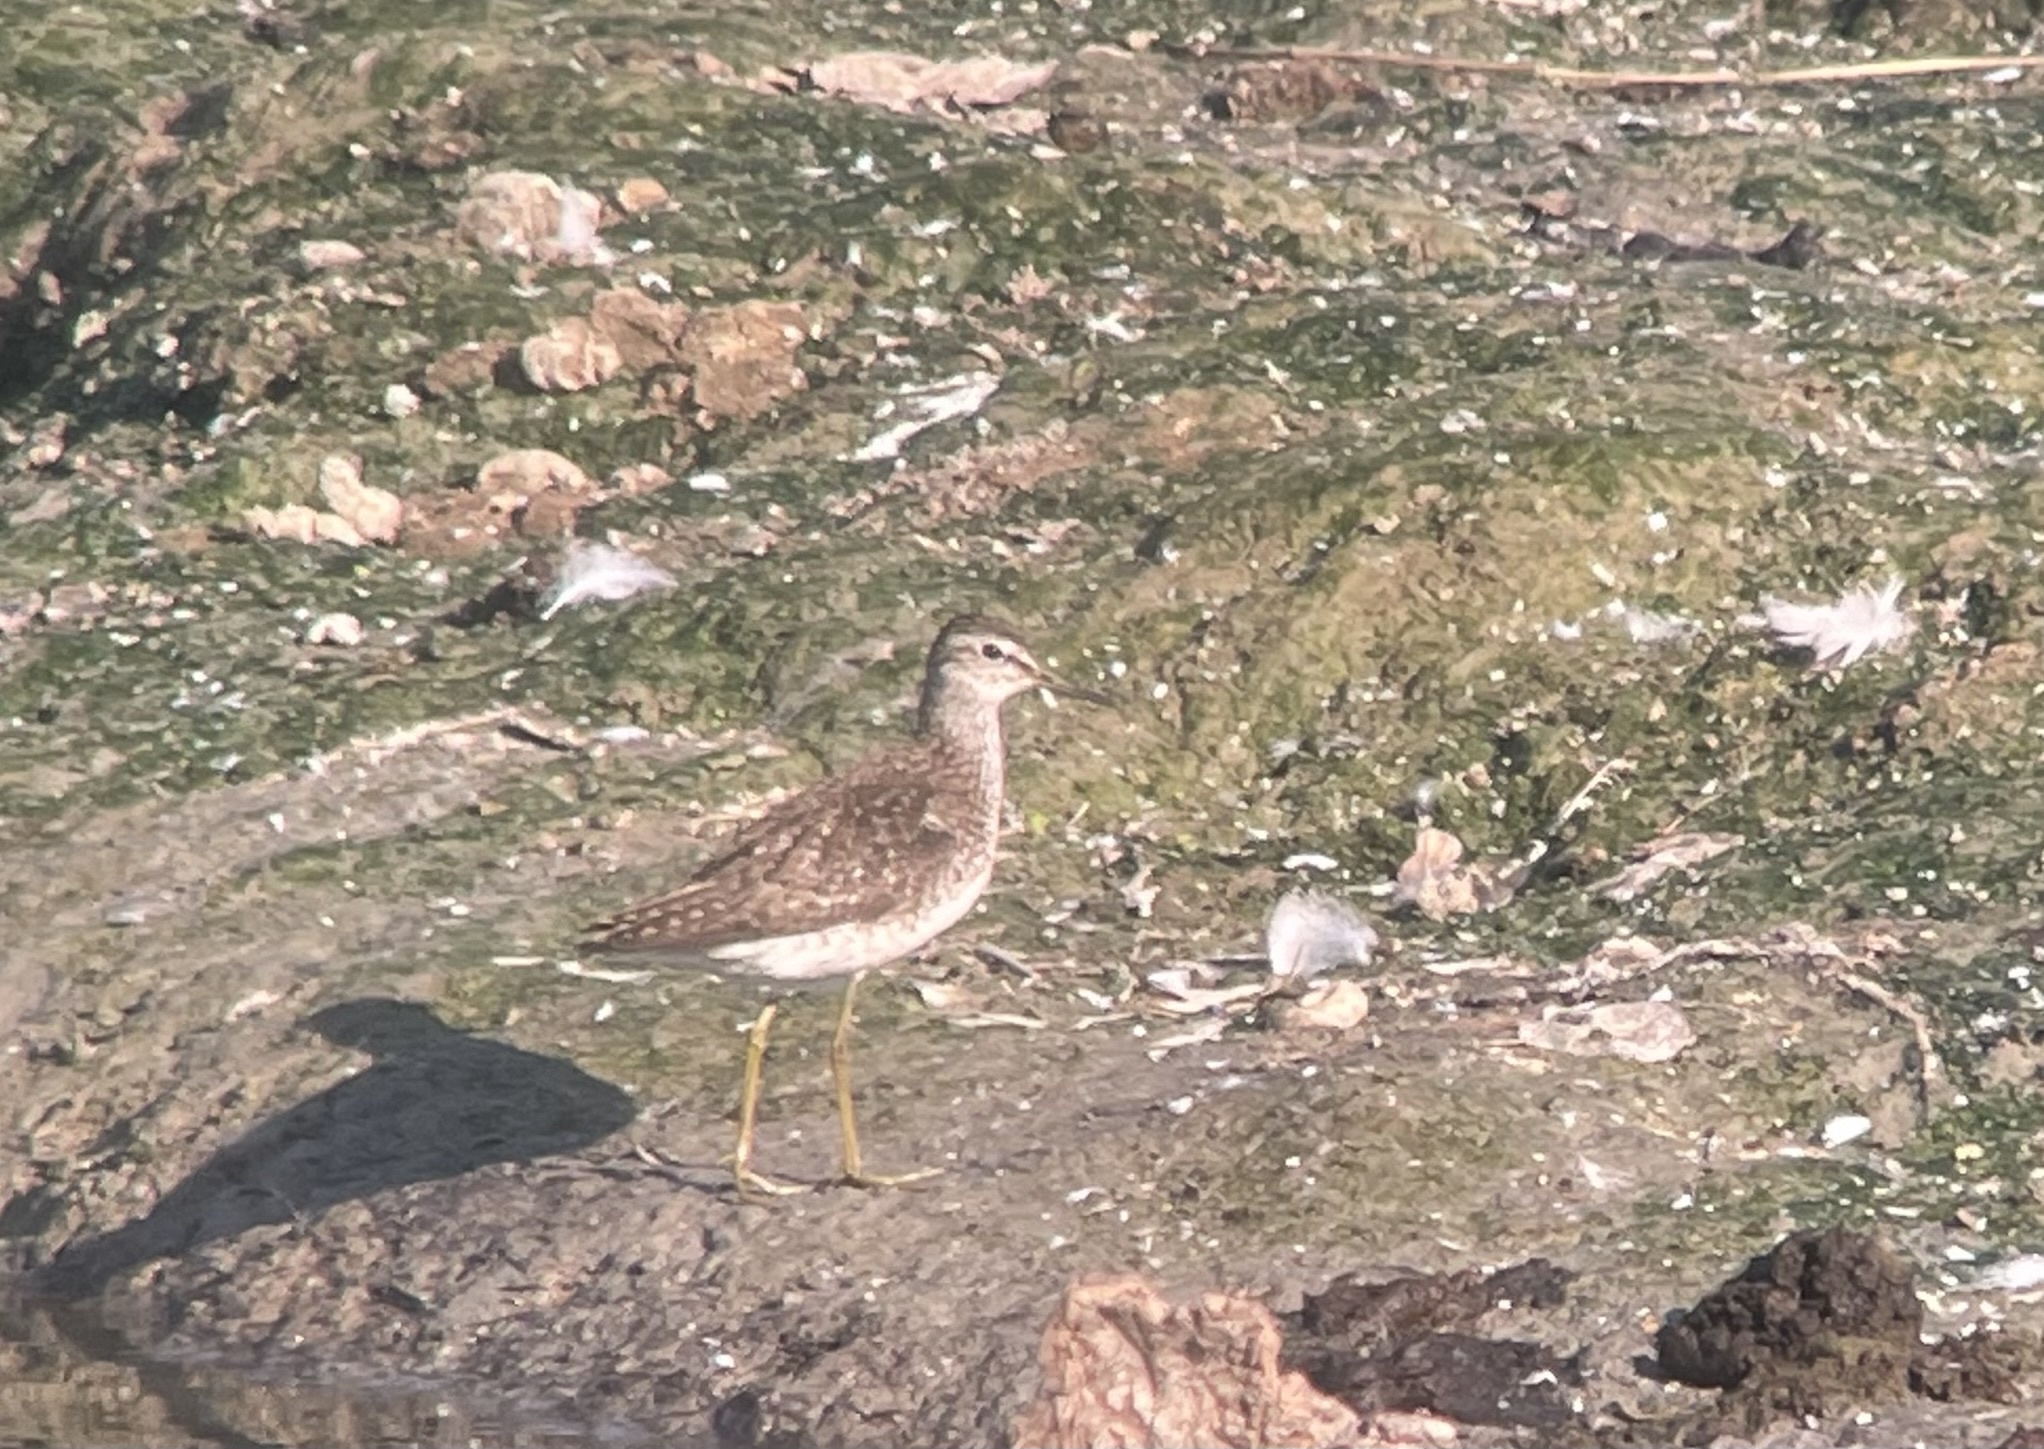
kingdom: Animalia
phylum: Chordata
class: Aves
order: Charadriiformes
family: Scolopacidae
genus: Tringa
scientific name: Tringa glareola
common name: Wood sandpiper
